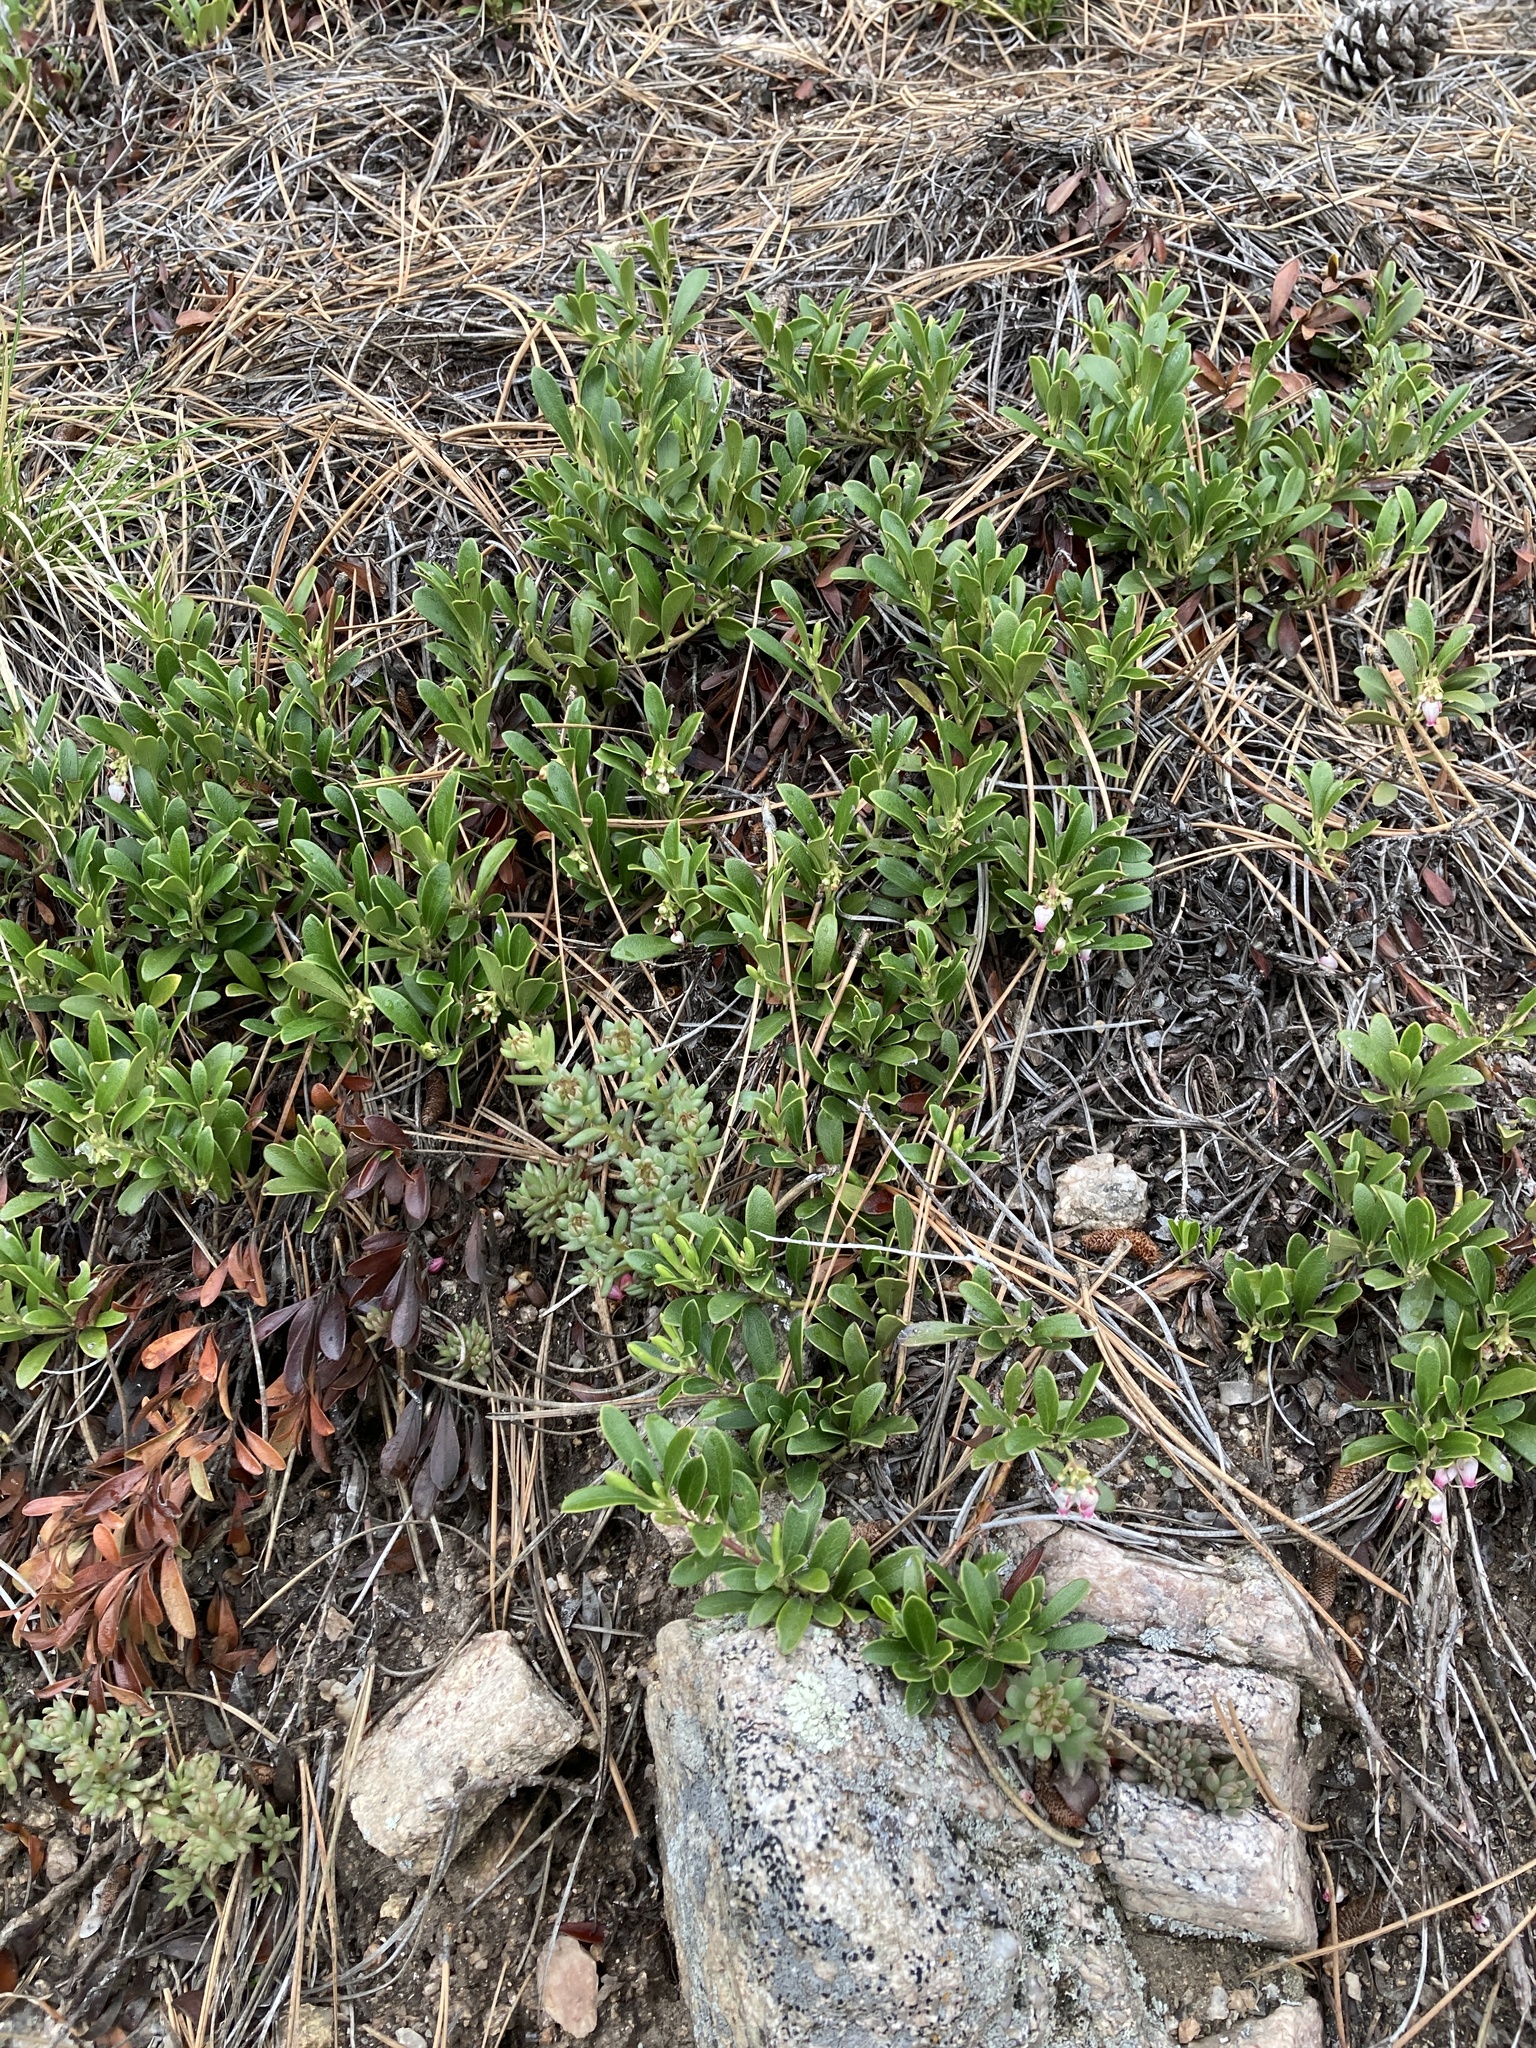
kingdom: Plantae
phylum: Tracheophyta
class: Magnoliopsida
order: Ericales
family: Ericaceae
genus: Arctostaphylos
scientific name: Arctostaphylos uva-ursi
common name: Bearberry
